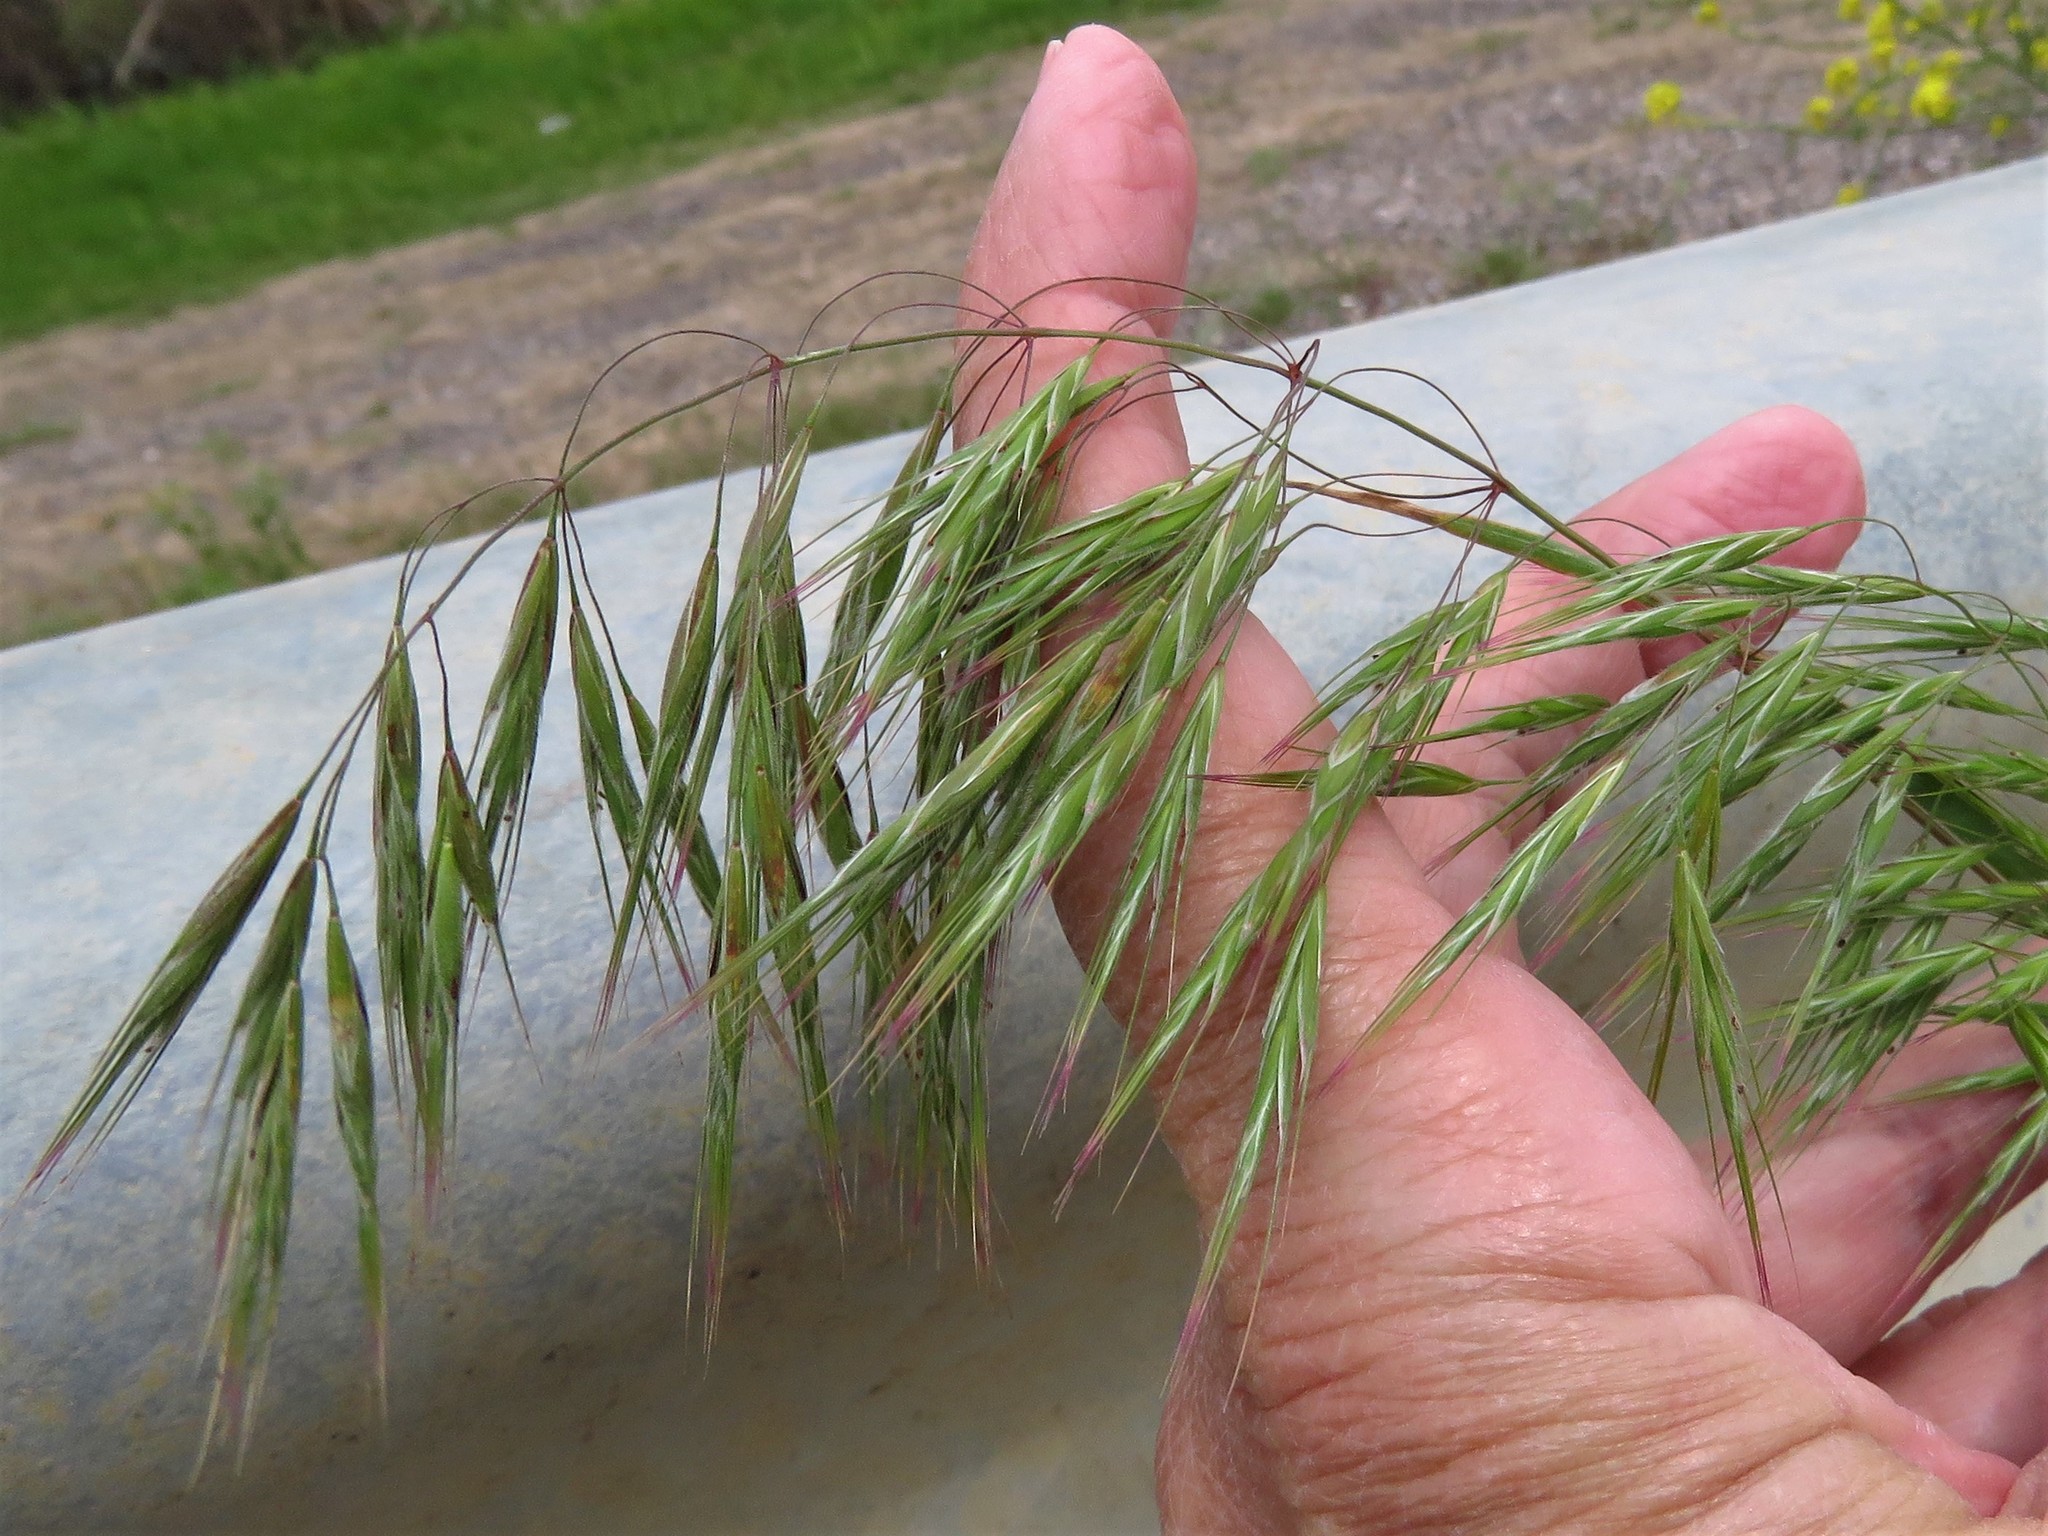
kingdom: Plantae
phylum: Tracheophyta
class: Liliopsida
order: Poales
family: Poaceae
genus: Bromus
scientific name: Bromus tectorum
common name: Cheatgrass
